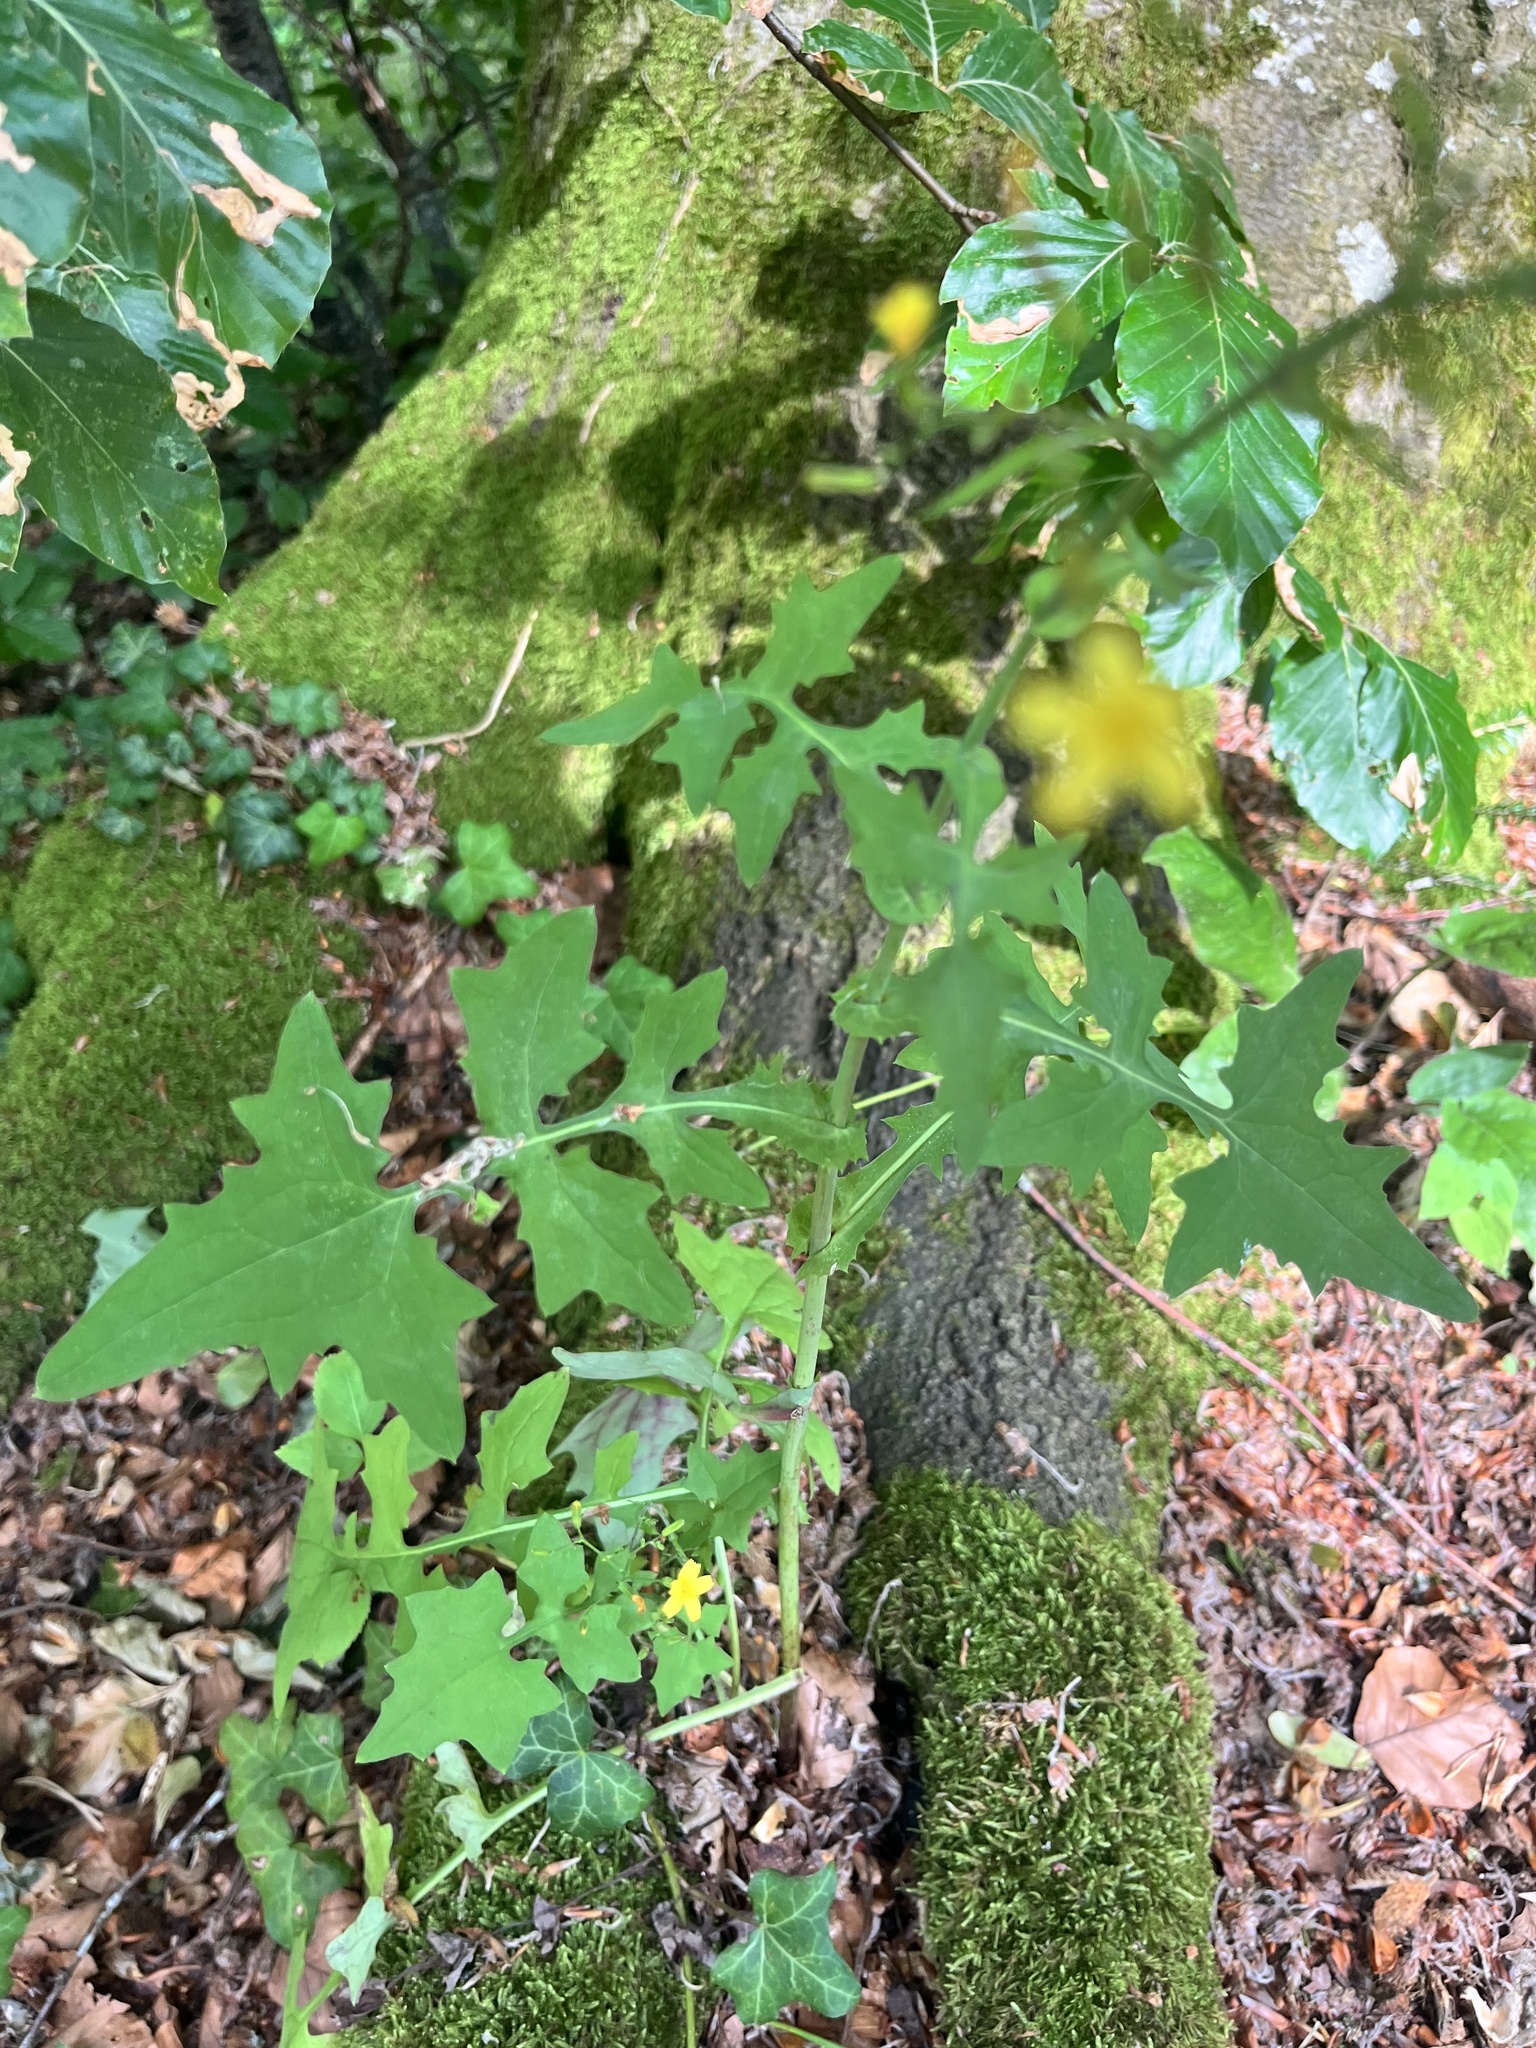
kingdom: Plantae
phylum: Tracheophyta
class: Magnoliopsida
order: Asterales
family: Asteraceae
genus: Mycelis
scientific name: Mycelis muralis
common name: Wall lettuce
